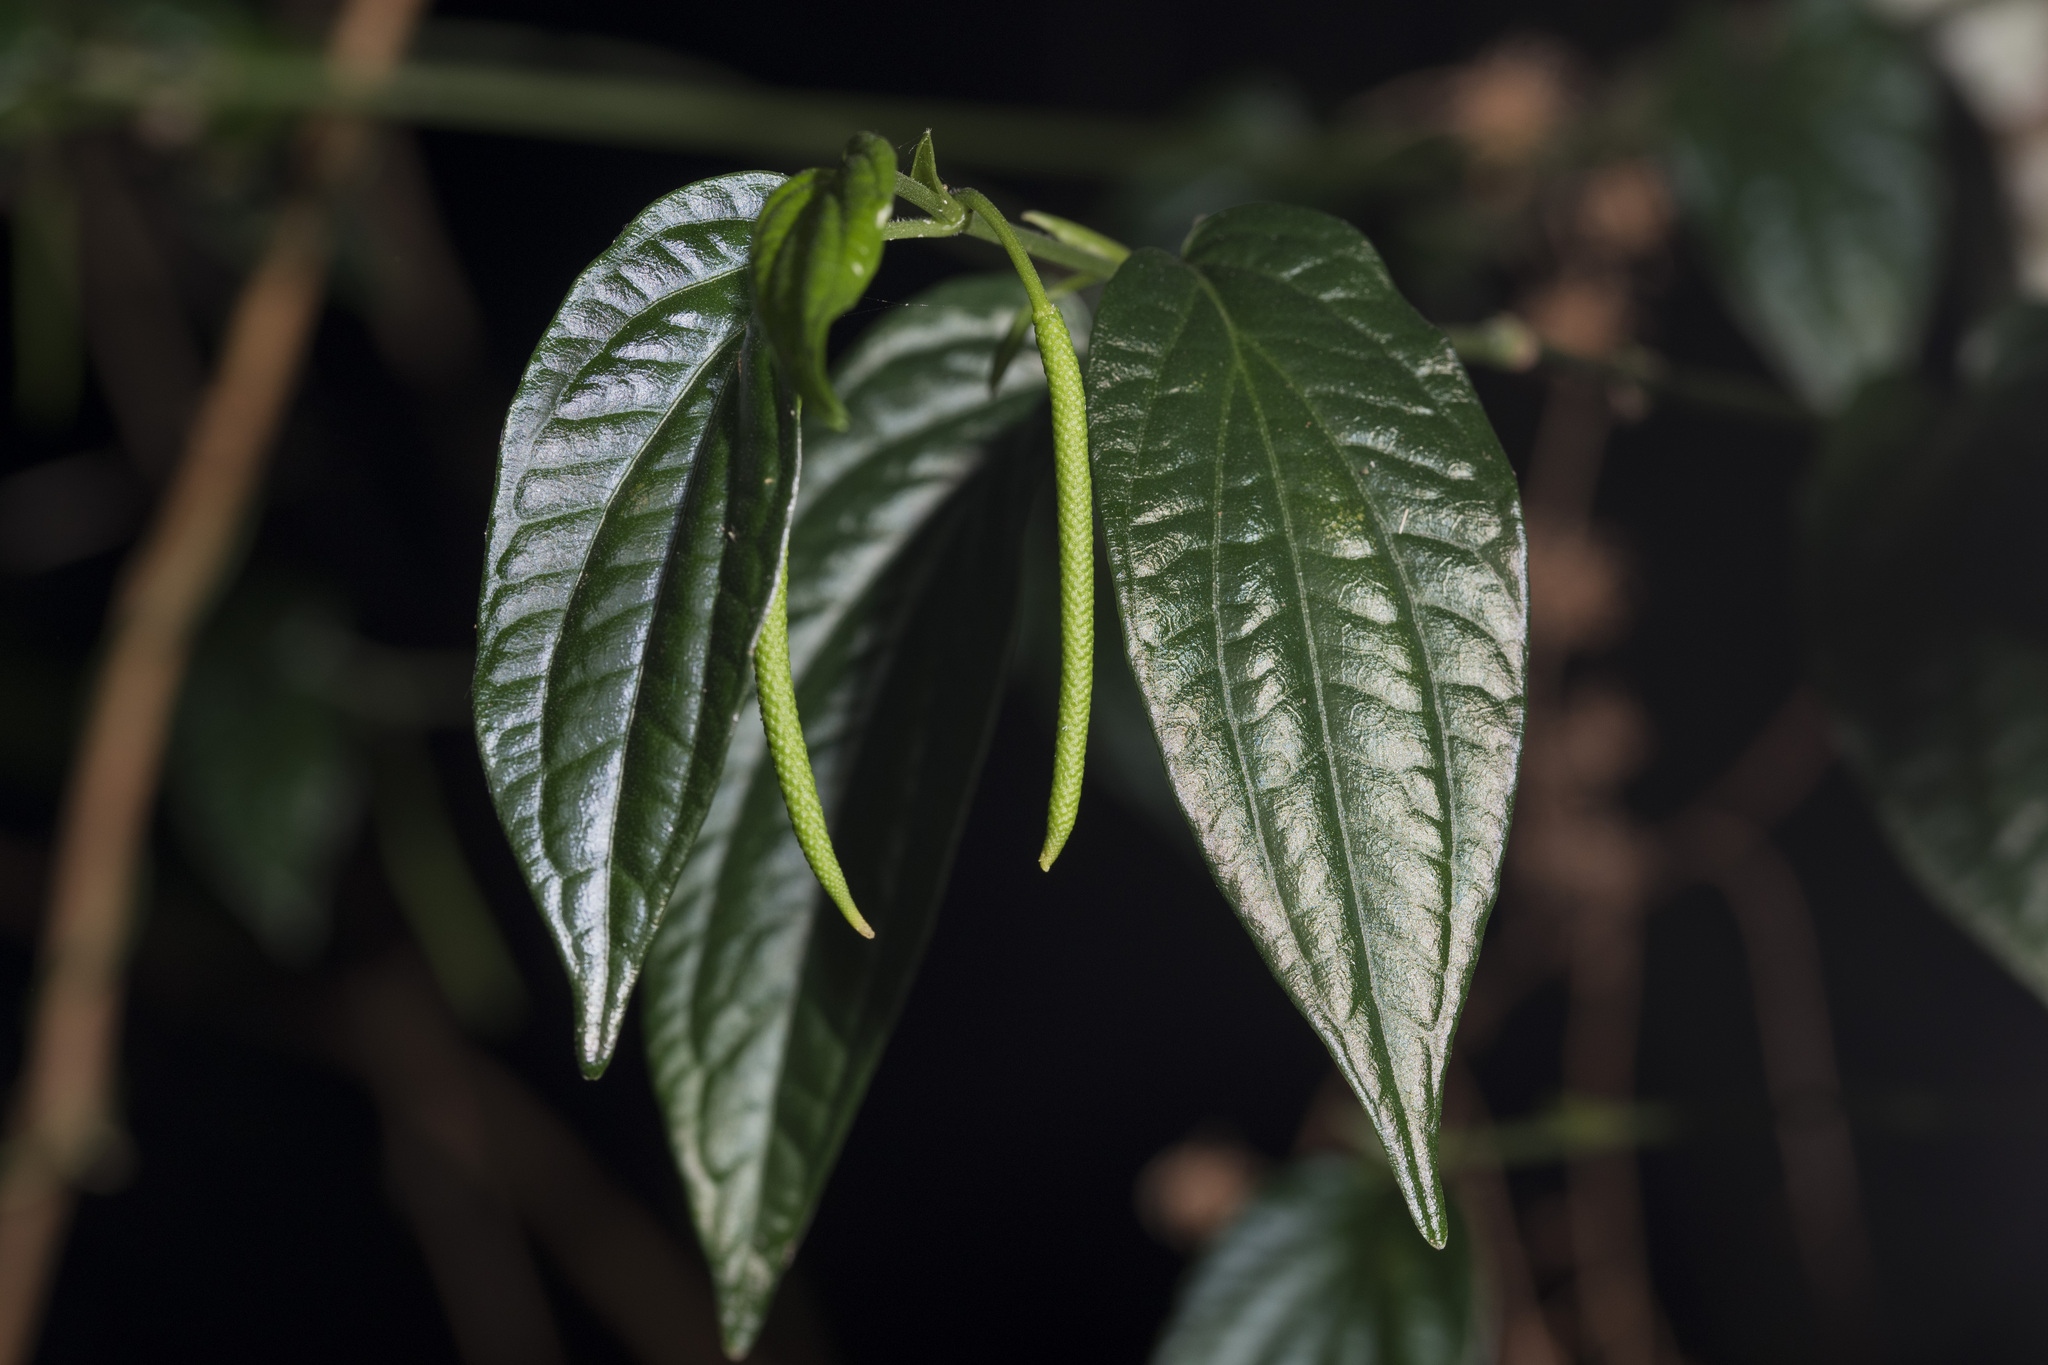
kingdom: Plantae
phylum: Tracheophyta
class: Magnoliopsida
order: Piperales
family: Piperaceae
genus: Piper
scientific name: Piper sintenense
